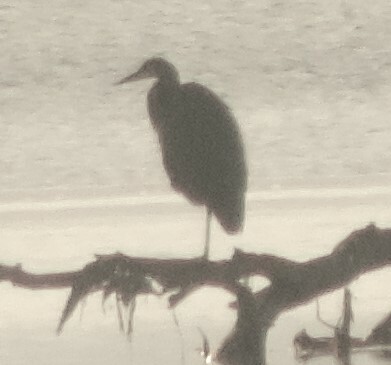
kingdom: Animalia
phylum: Chordata
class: Aves
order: Pelecaniformes
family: Ardeidae
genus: Ardea
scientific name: Ardea herodias
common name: Great blue heron
